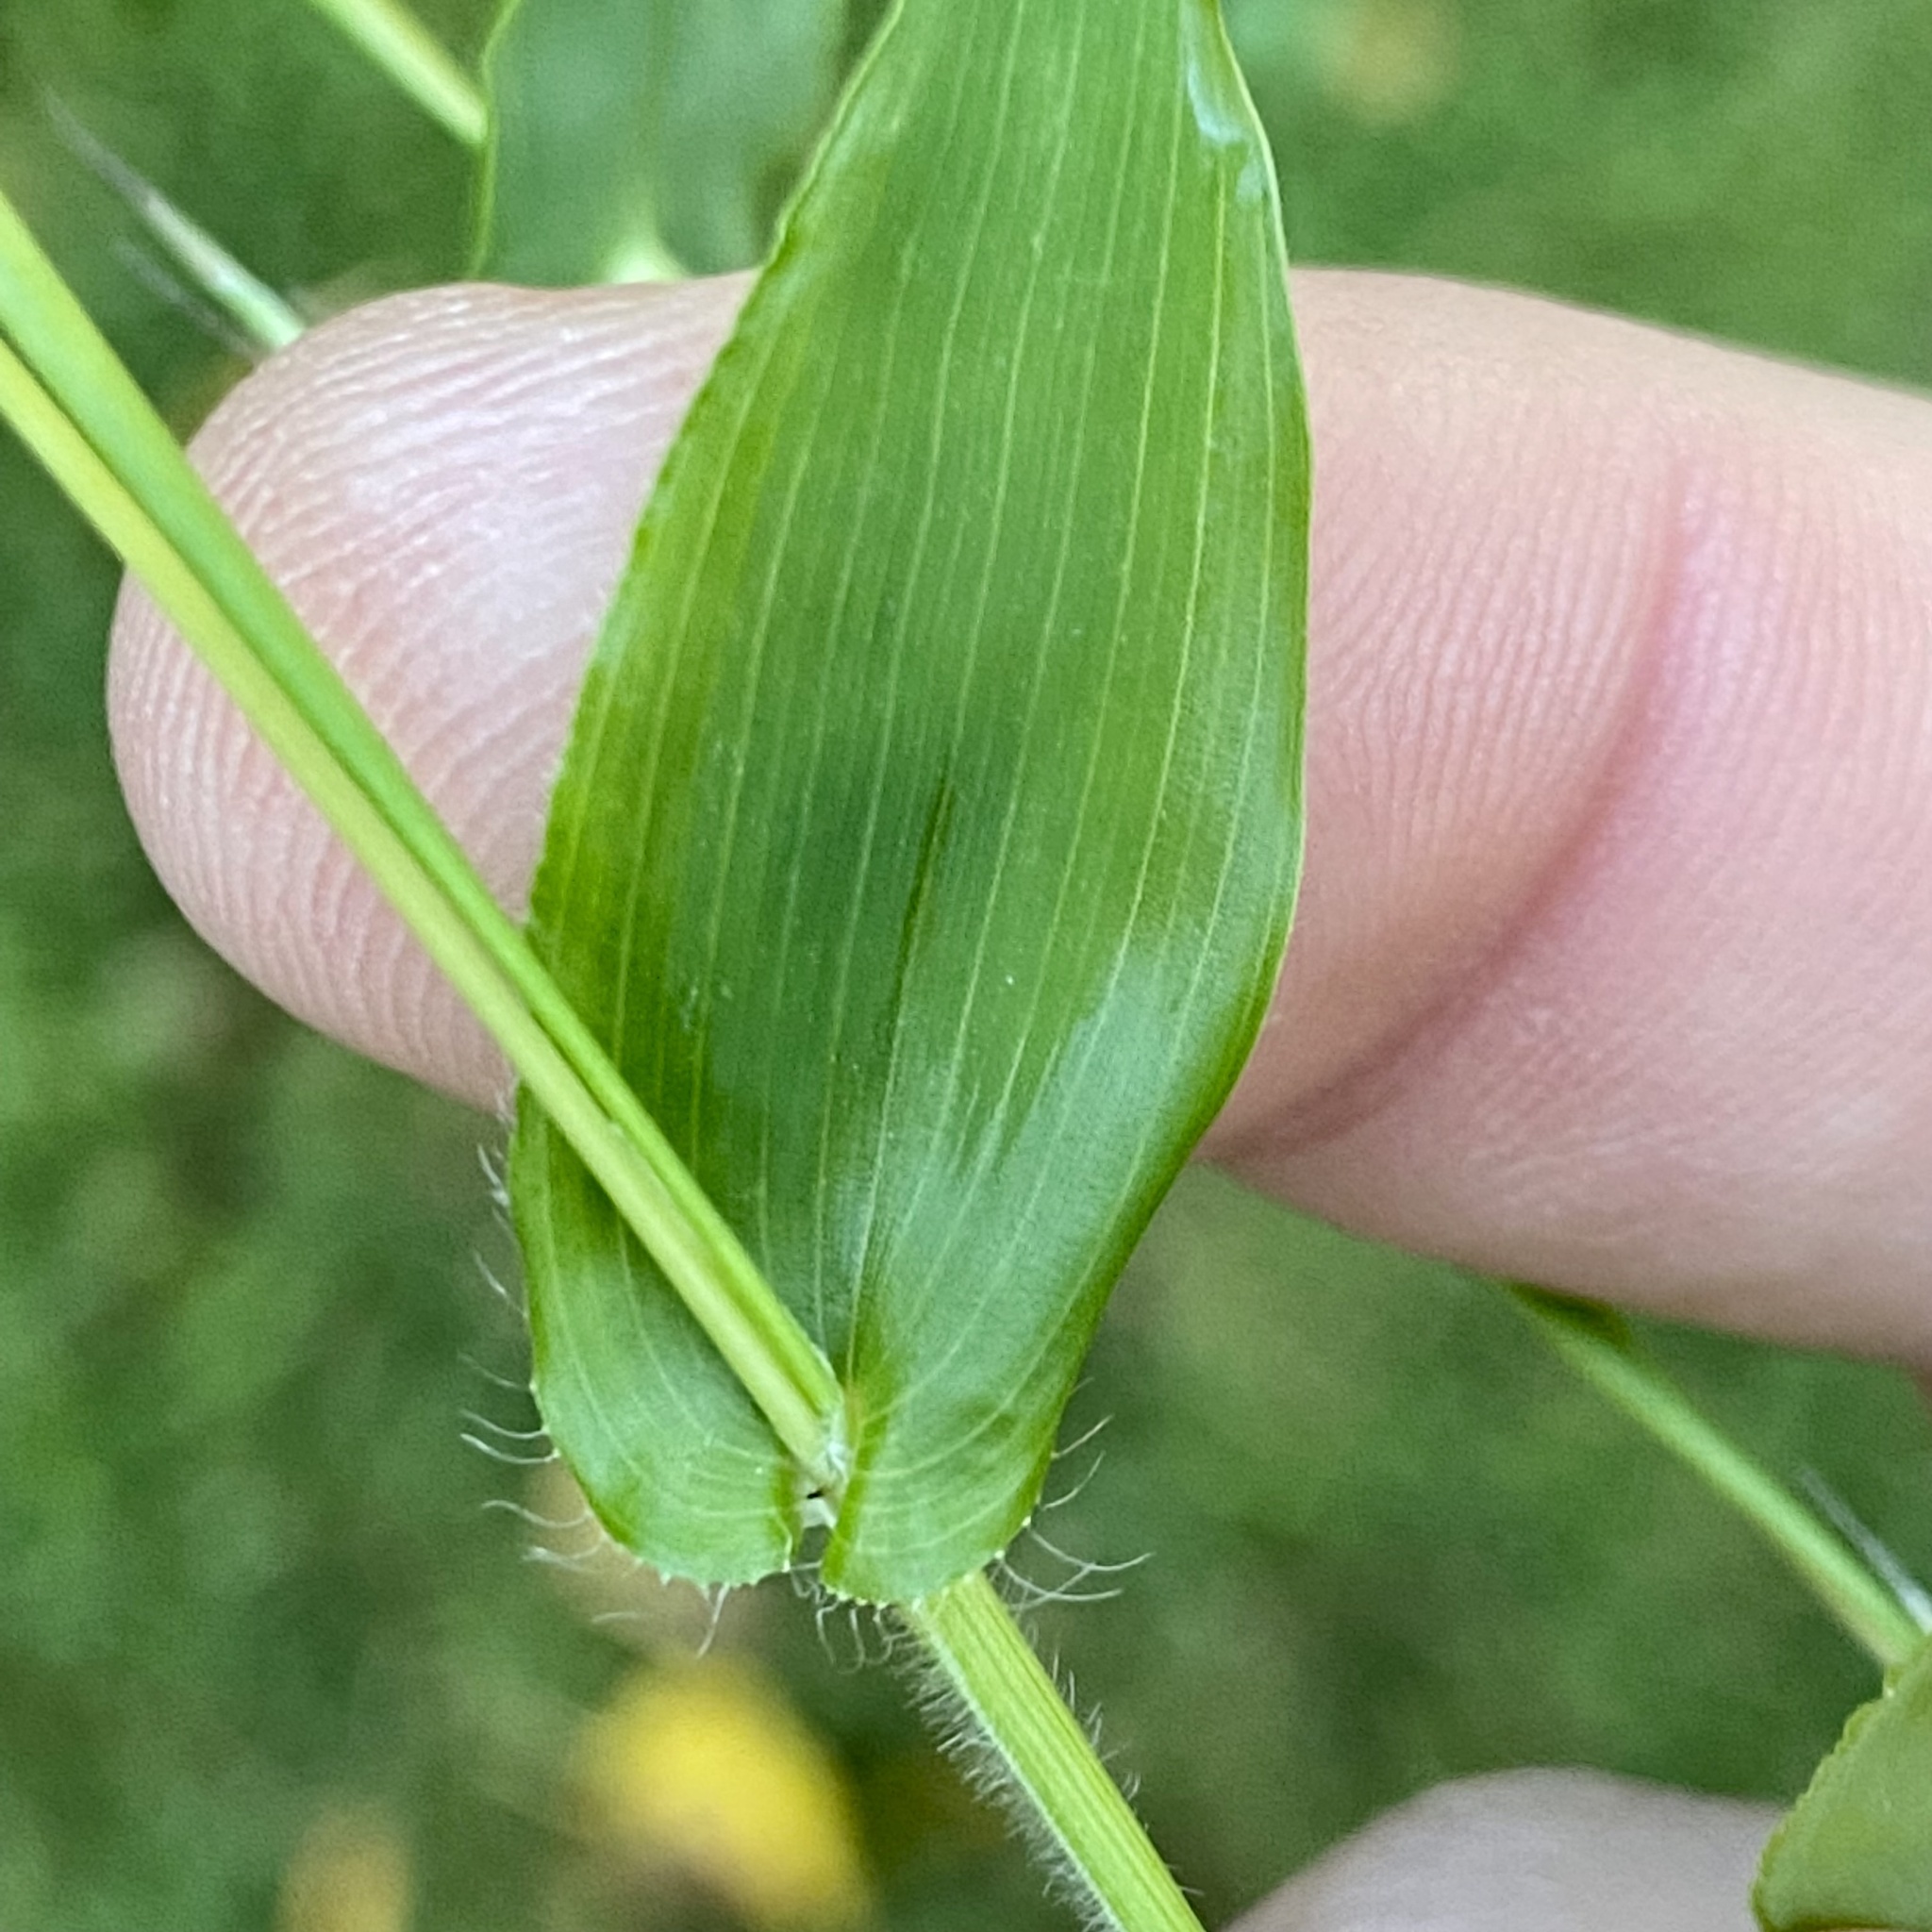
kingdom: Plantae
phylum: Tracheophyta
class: Liliopsida
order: Poales
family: Poaceae
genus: Arthraxon
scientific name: Arthraxon hispidus
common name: Small carpgrass
